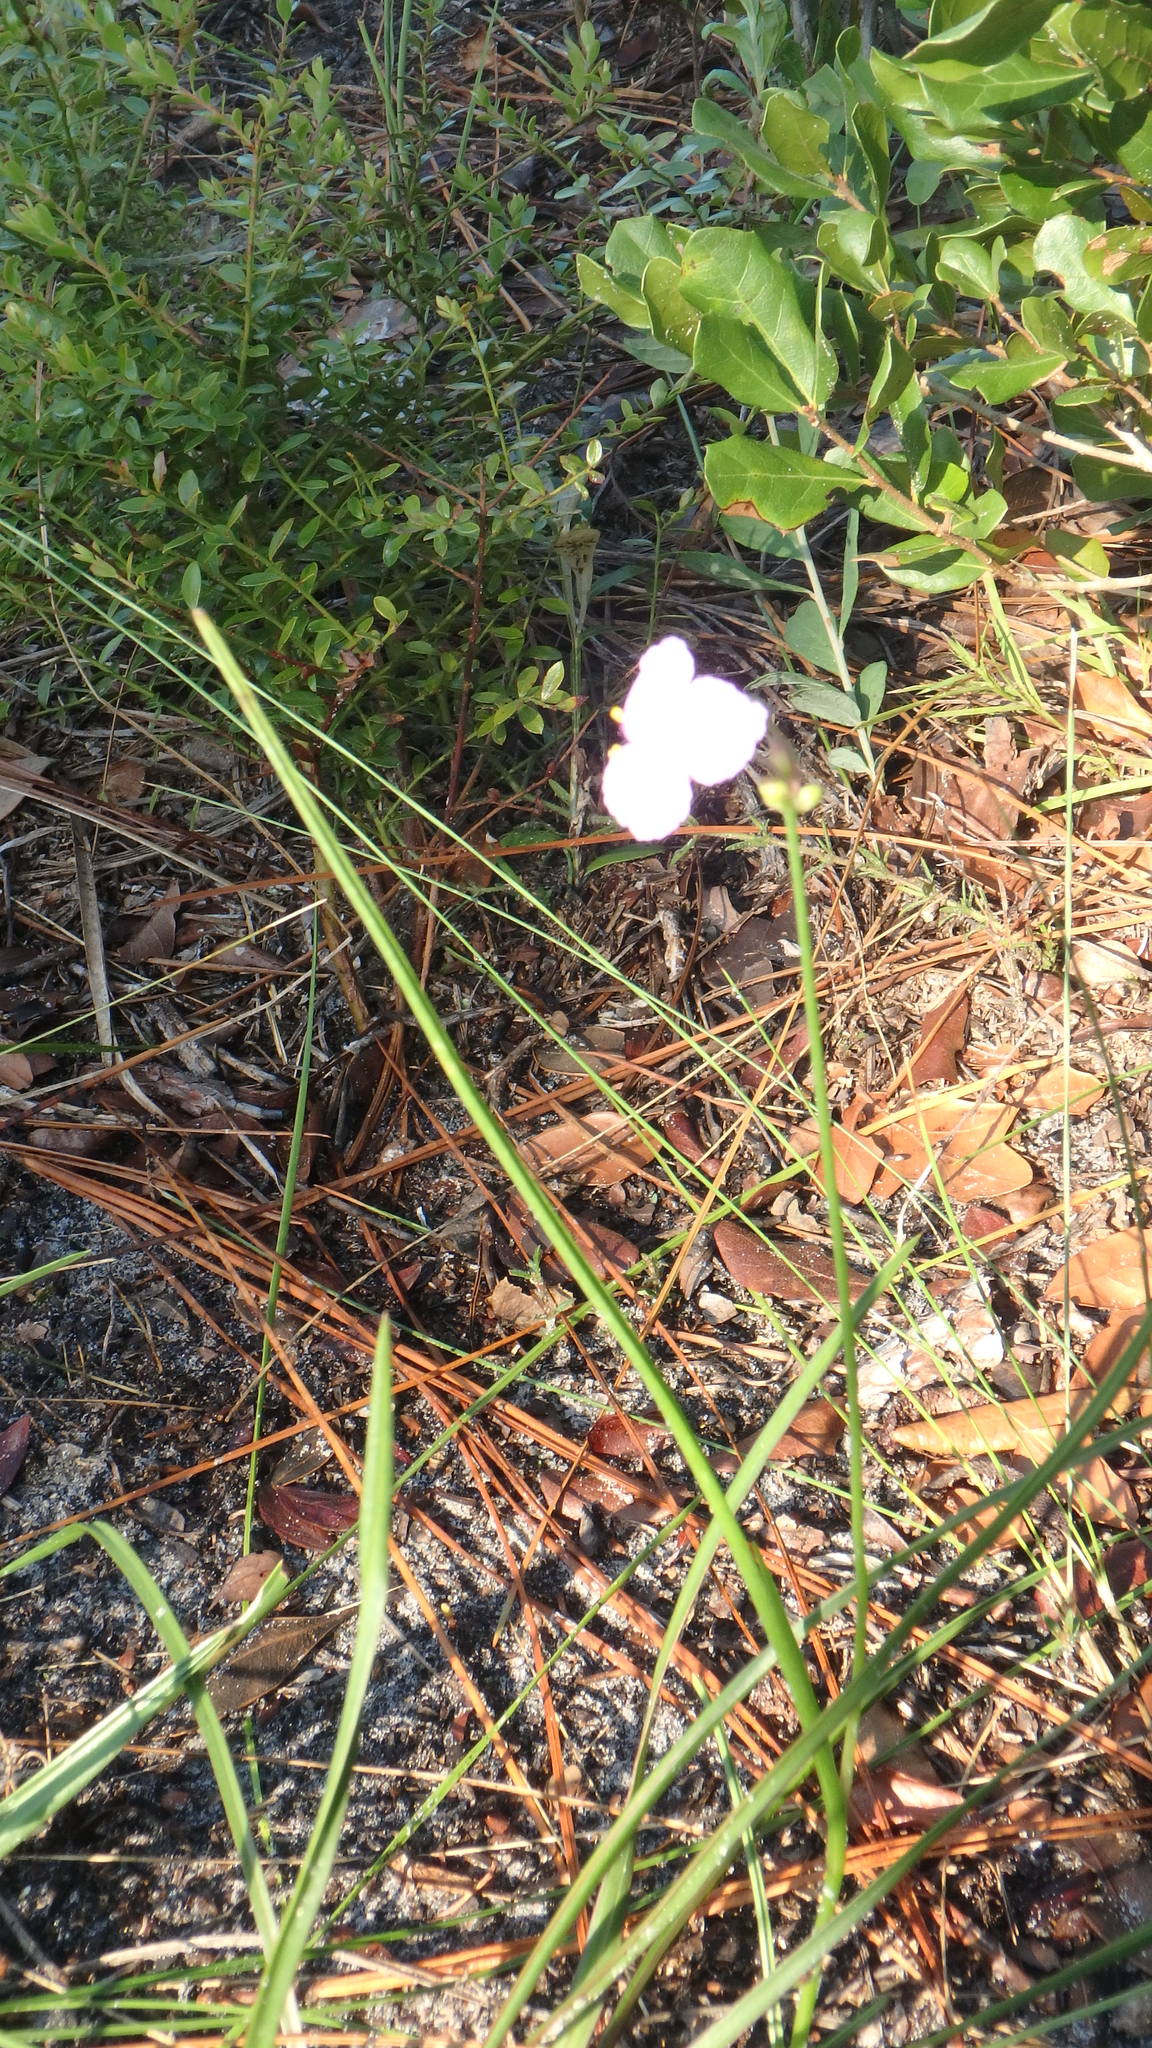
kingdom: Plantae
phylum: Tracheophyta
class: Liliopsida
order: Commelinales
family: Commelinaceae
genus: Callisia
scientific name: Callisia ornata
